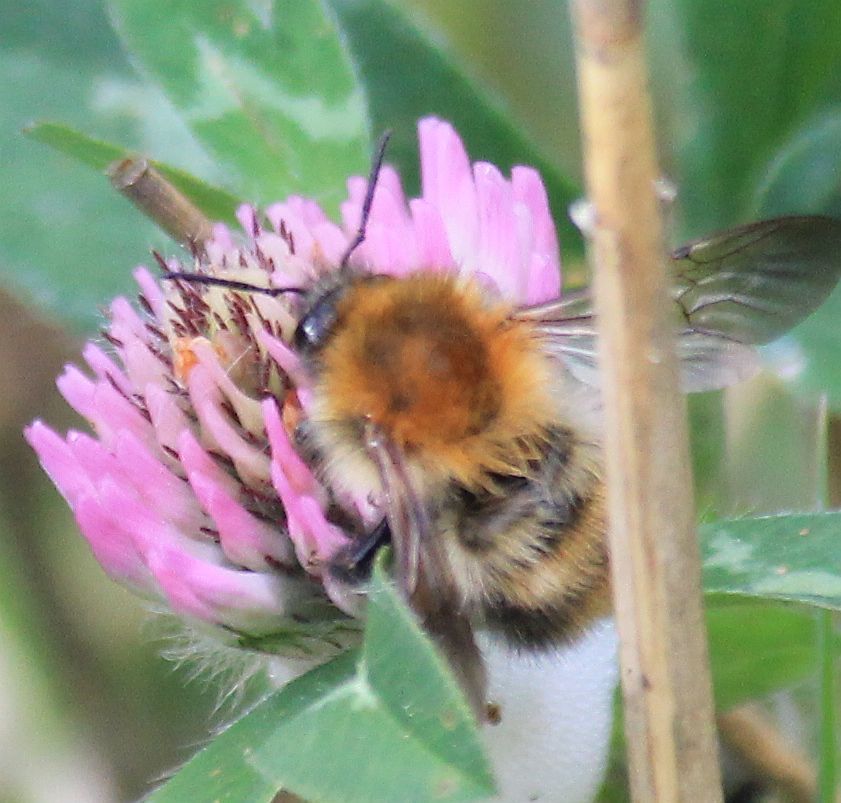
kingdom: Animalia
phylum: Arthropoda
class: Insecta
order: Hymenoptera
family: Apidae
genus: Bombus
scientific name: Bombus pascuorum
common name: Common carder bee
